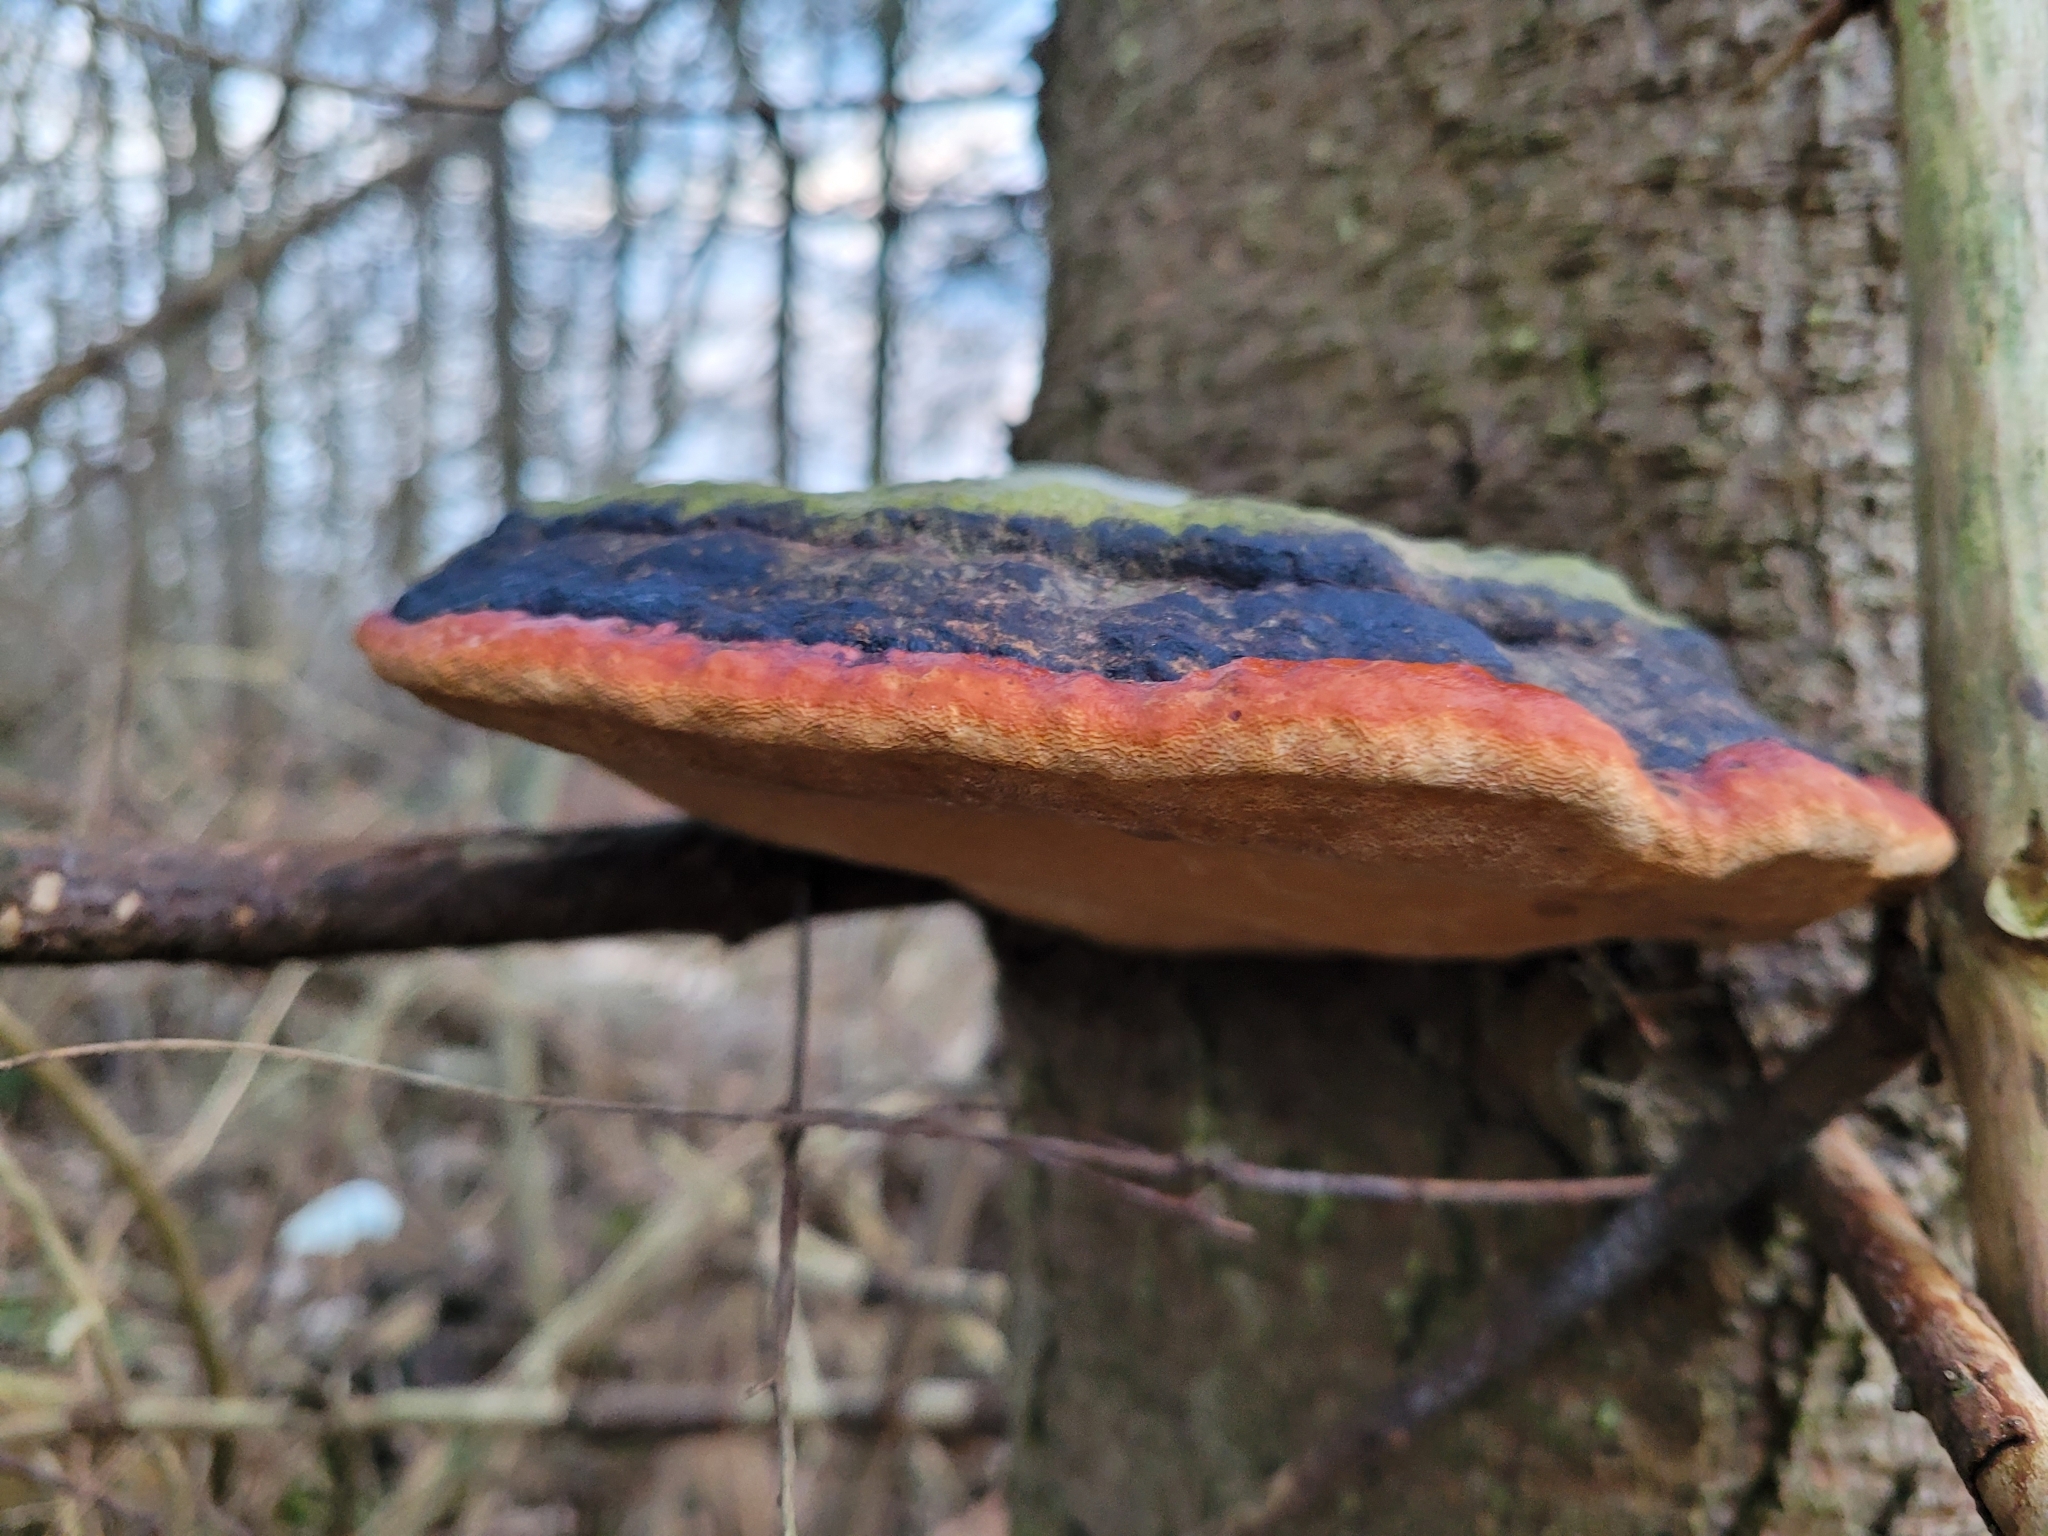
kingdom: Fungi
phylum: Basidiomycota
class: Agaricomycetes
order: Polyporales
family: Fomitopsidaceae
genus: Fomitopsis
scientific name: Fomitopsis pinicola
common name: Red-belted bracket
